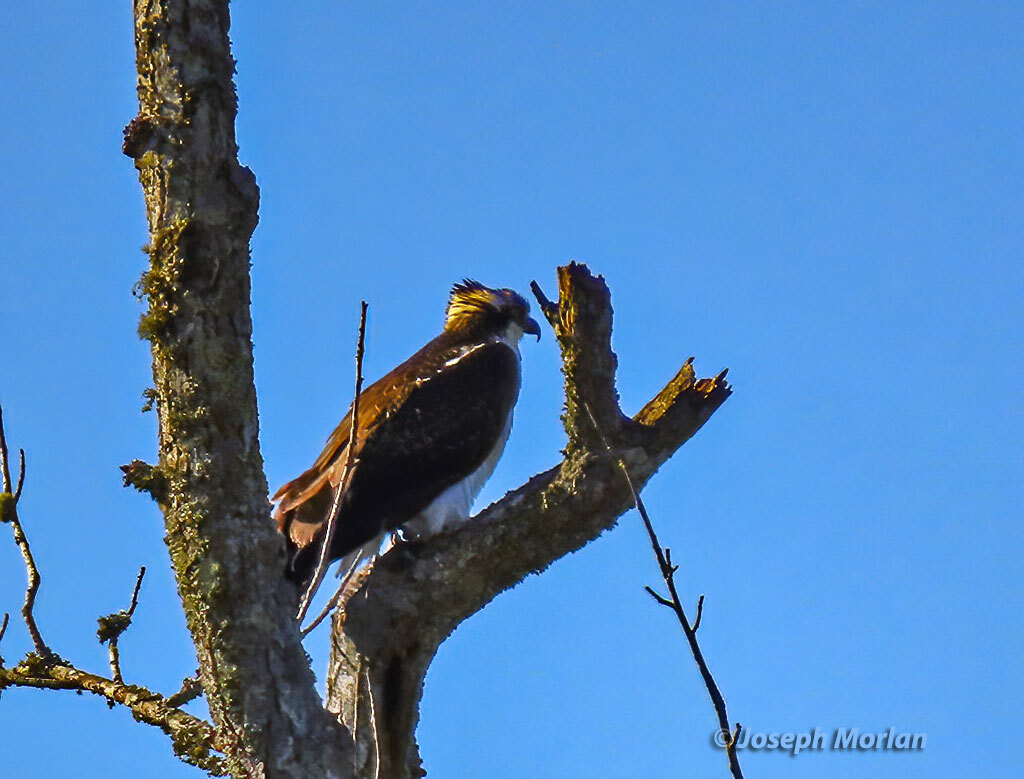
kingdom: Animalia
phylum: Chordata
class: Aves
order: Accipitriformes
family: Pandionidae
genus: Pandion
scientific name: Pandion haliaetus
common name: Osprey
